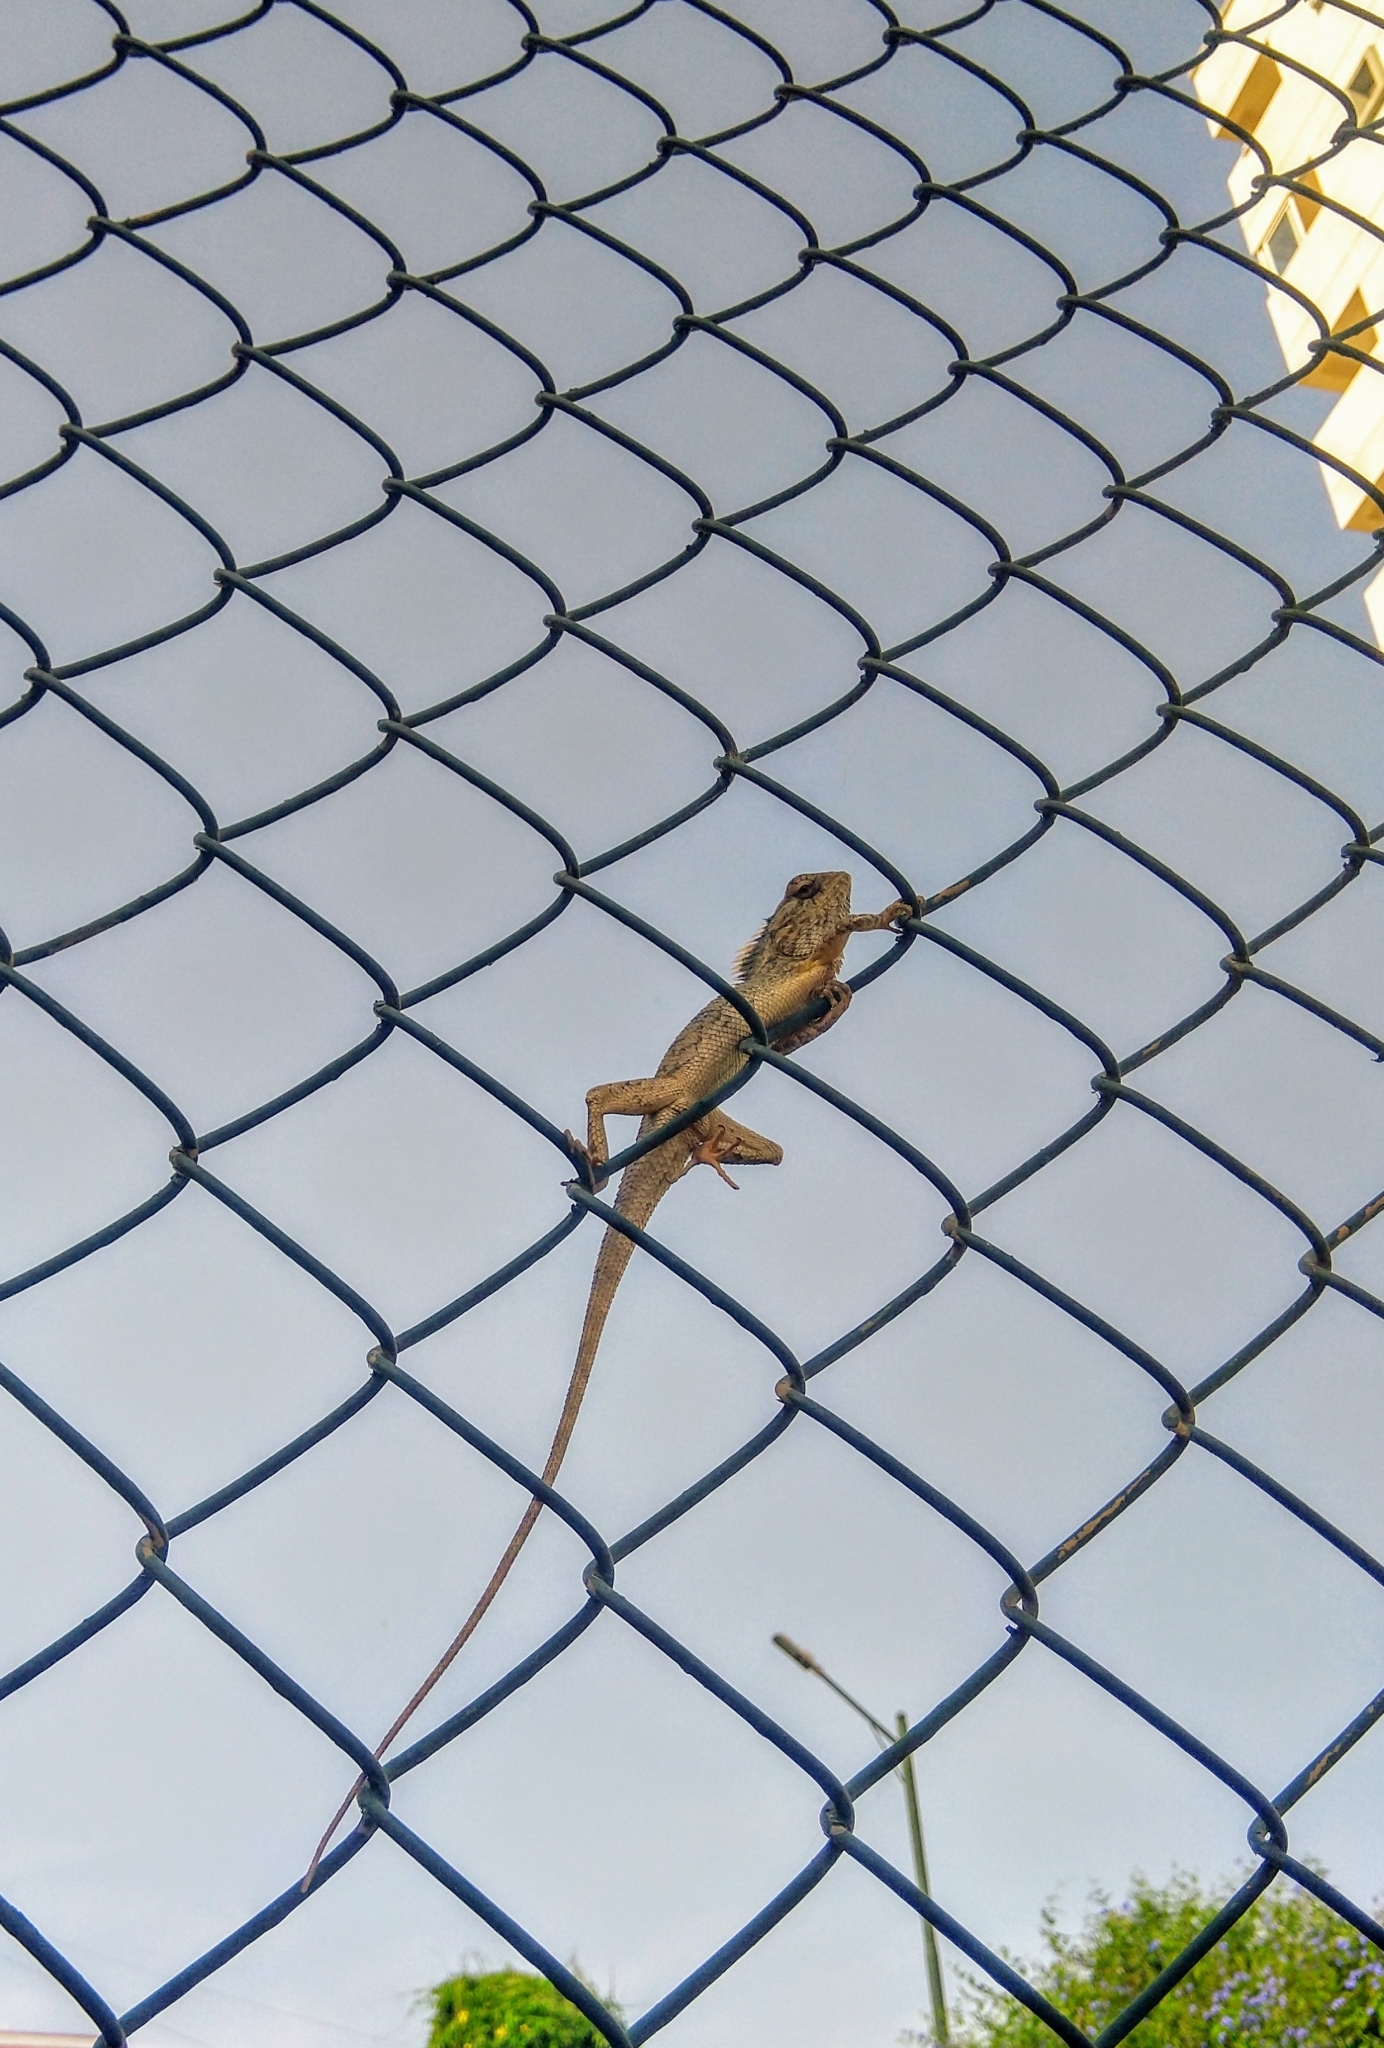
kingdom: Animalia
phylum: Chordata
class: Squamata
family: Agamidae
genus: Calotes
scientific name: Calotes versicolor
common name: Oriental garden lizard
